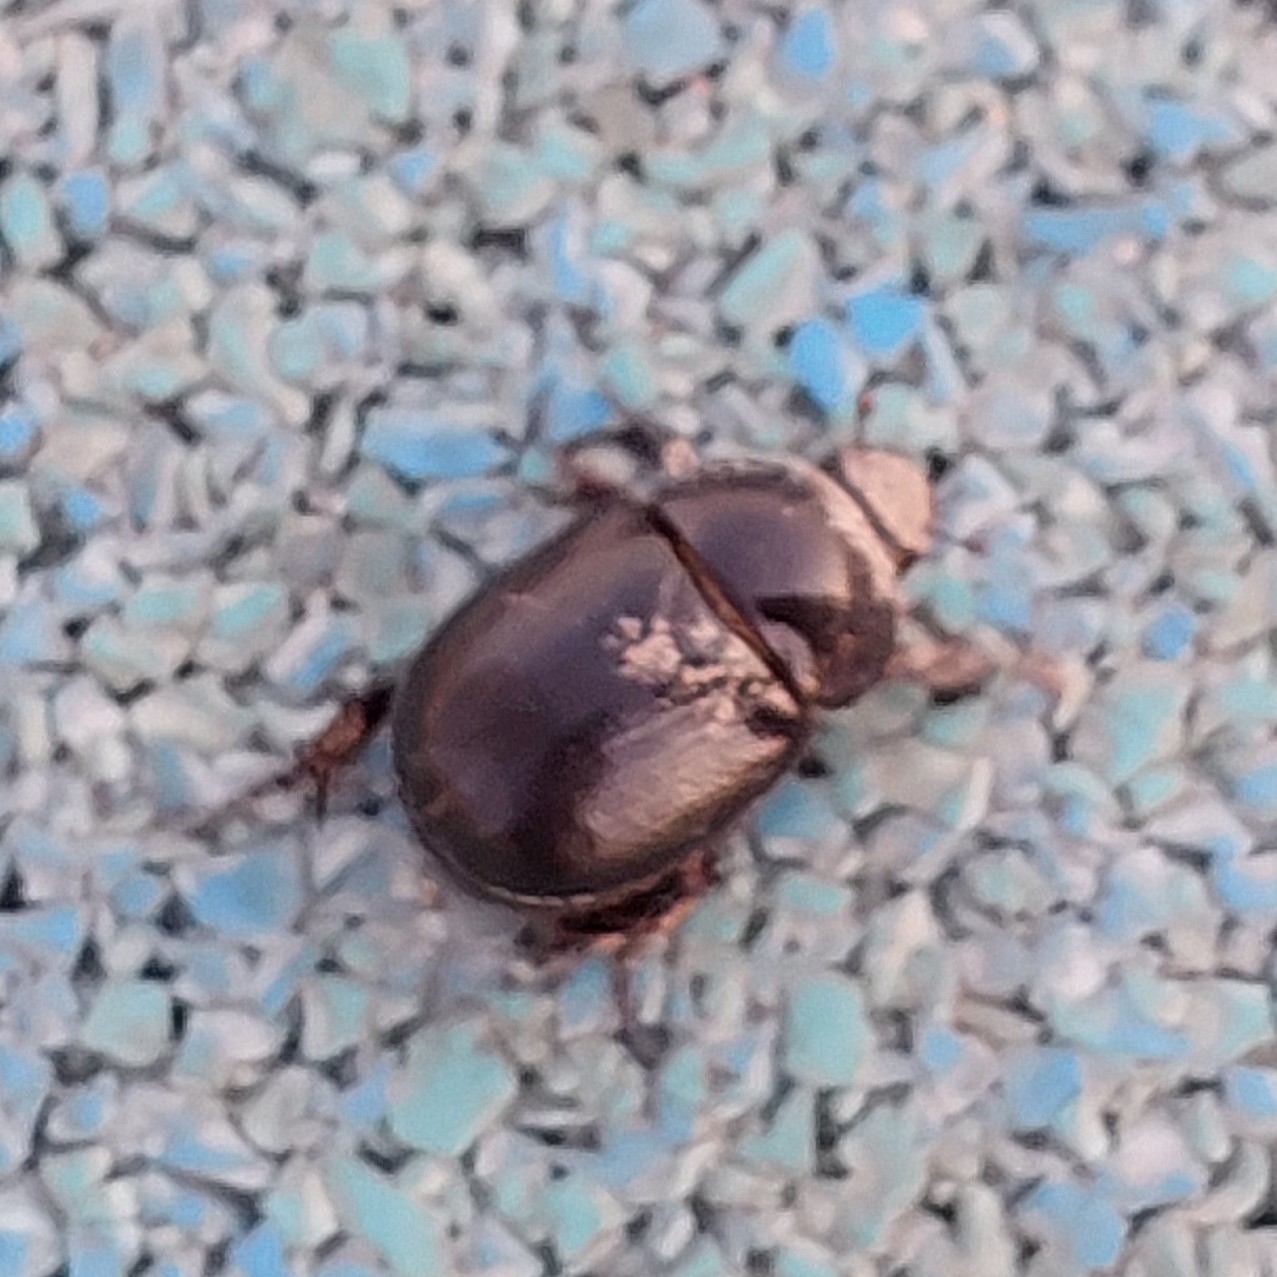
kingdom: Animalia
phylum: Arthropoda
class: Insecta
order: Coleoptera
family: Scarabaeidae
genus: Pentodon
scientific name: Pentodon algerinus
